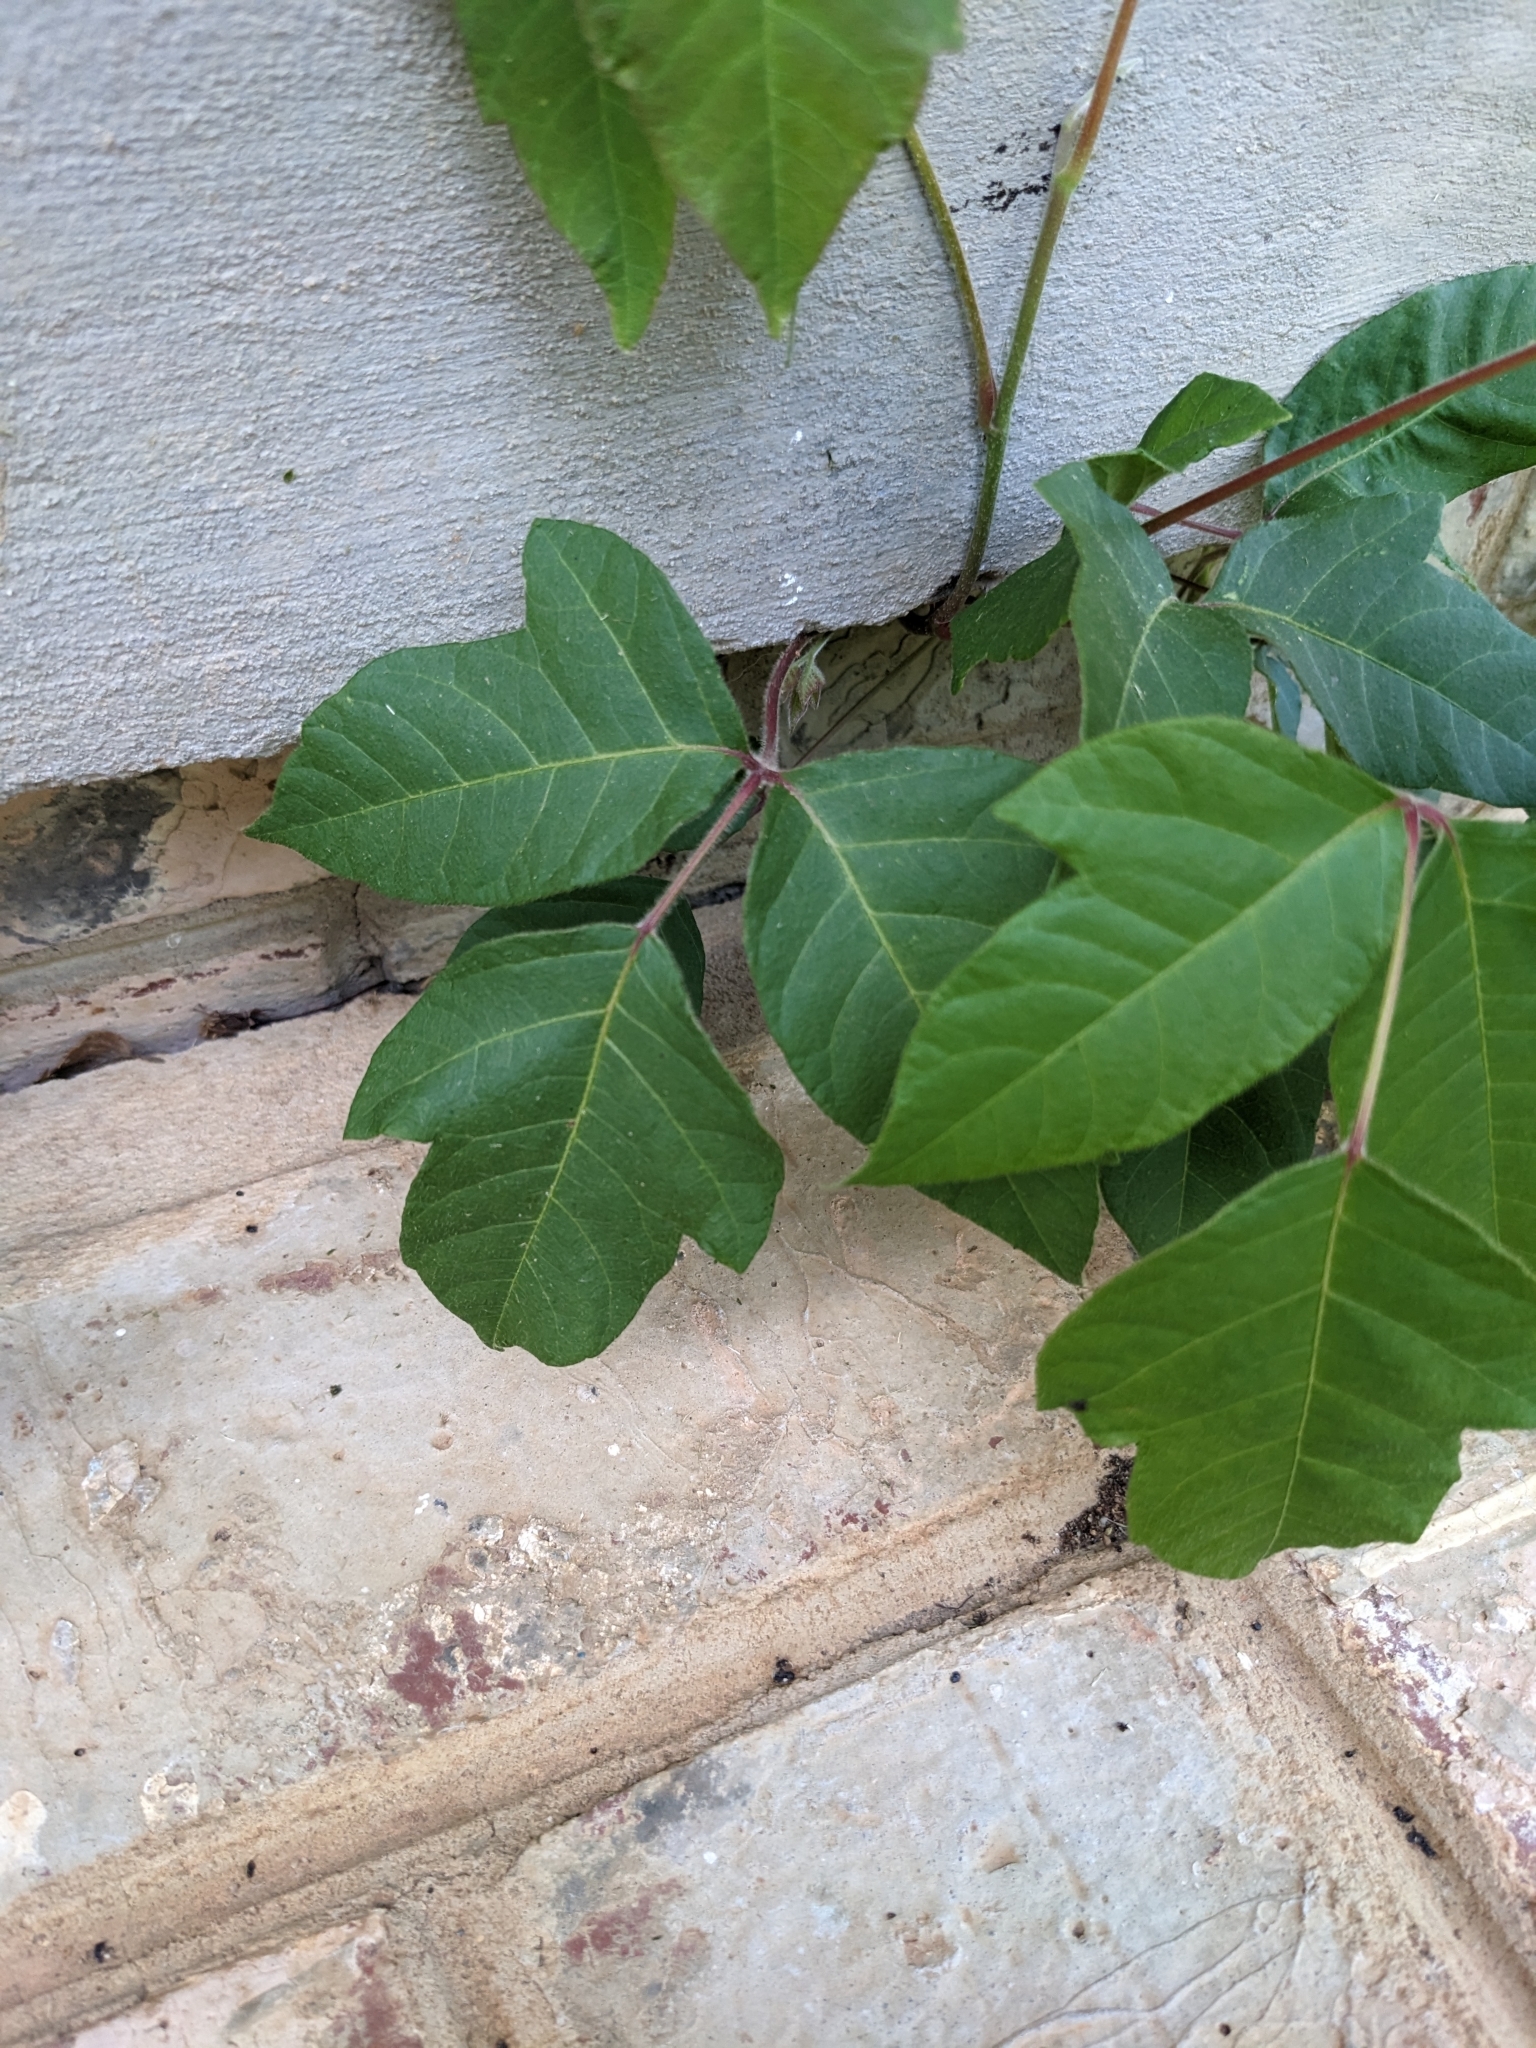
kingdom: Plantae
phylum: Tracheophyta
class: Magnoliopsida
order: Sapindales
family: Anacardiaceae
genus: Toxicodendron
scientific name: Toxicodendron radicans
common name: Poison ivy
